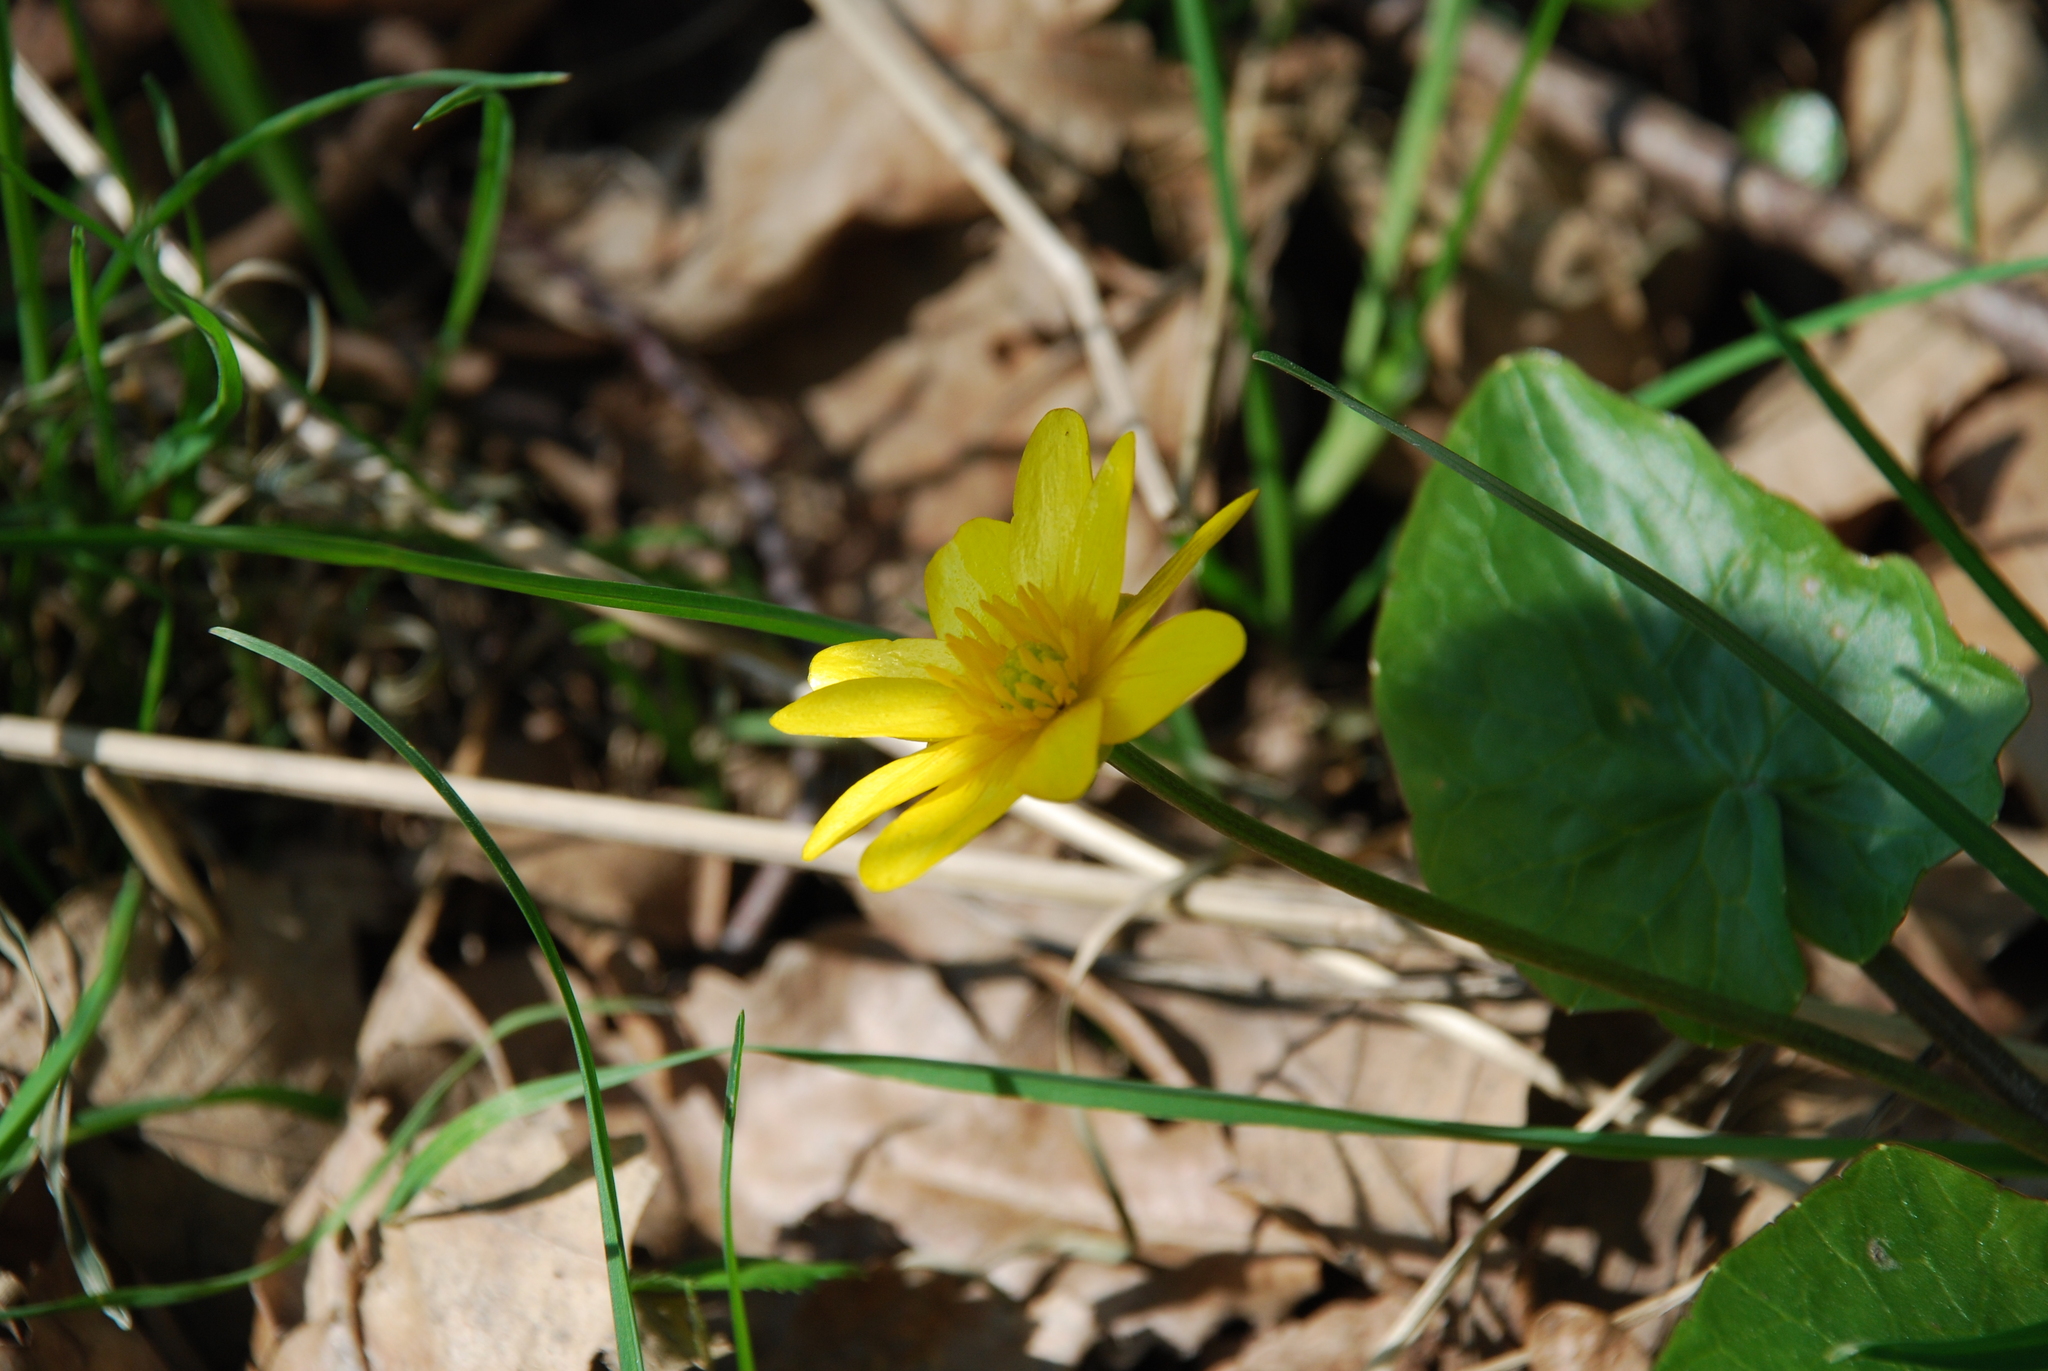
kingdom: Plantae
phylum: Tracheophyta
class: Magnoliopsida
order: Ranunculales
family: Ranunculaceae
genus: Ficaria
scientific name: Ficaria verna
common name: Lesser celandine
